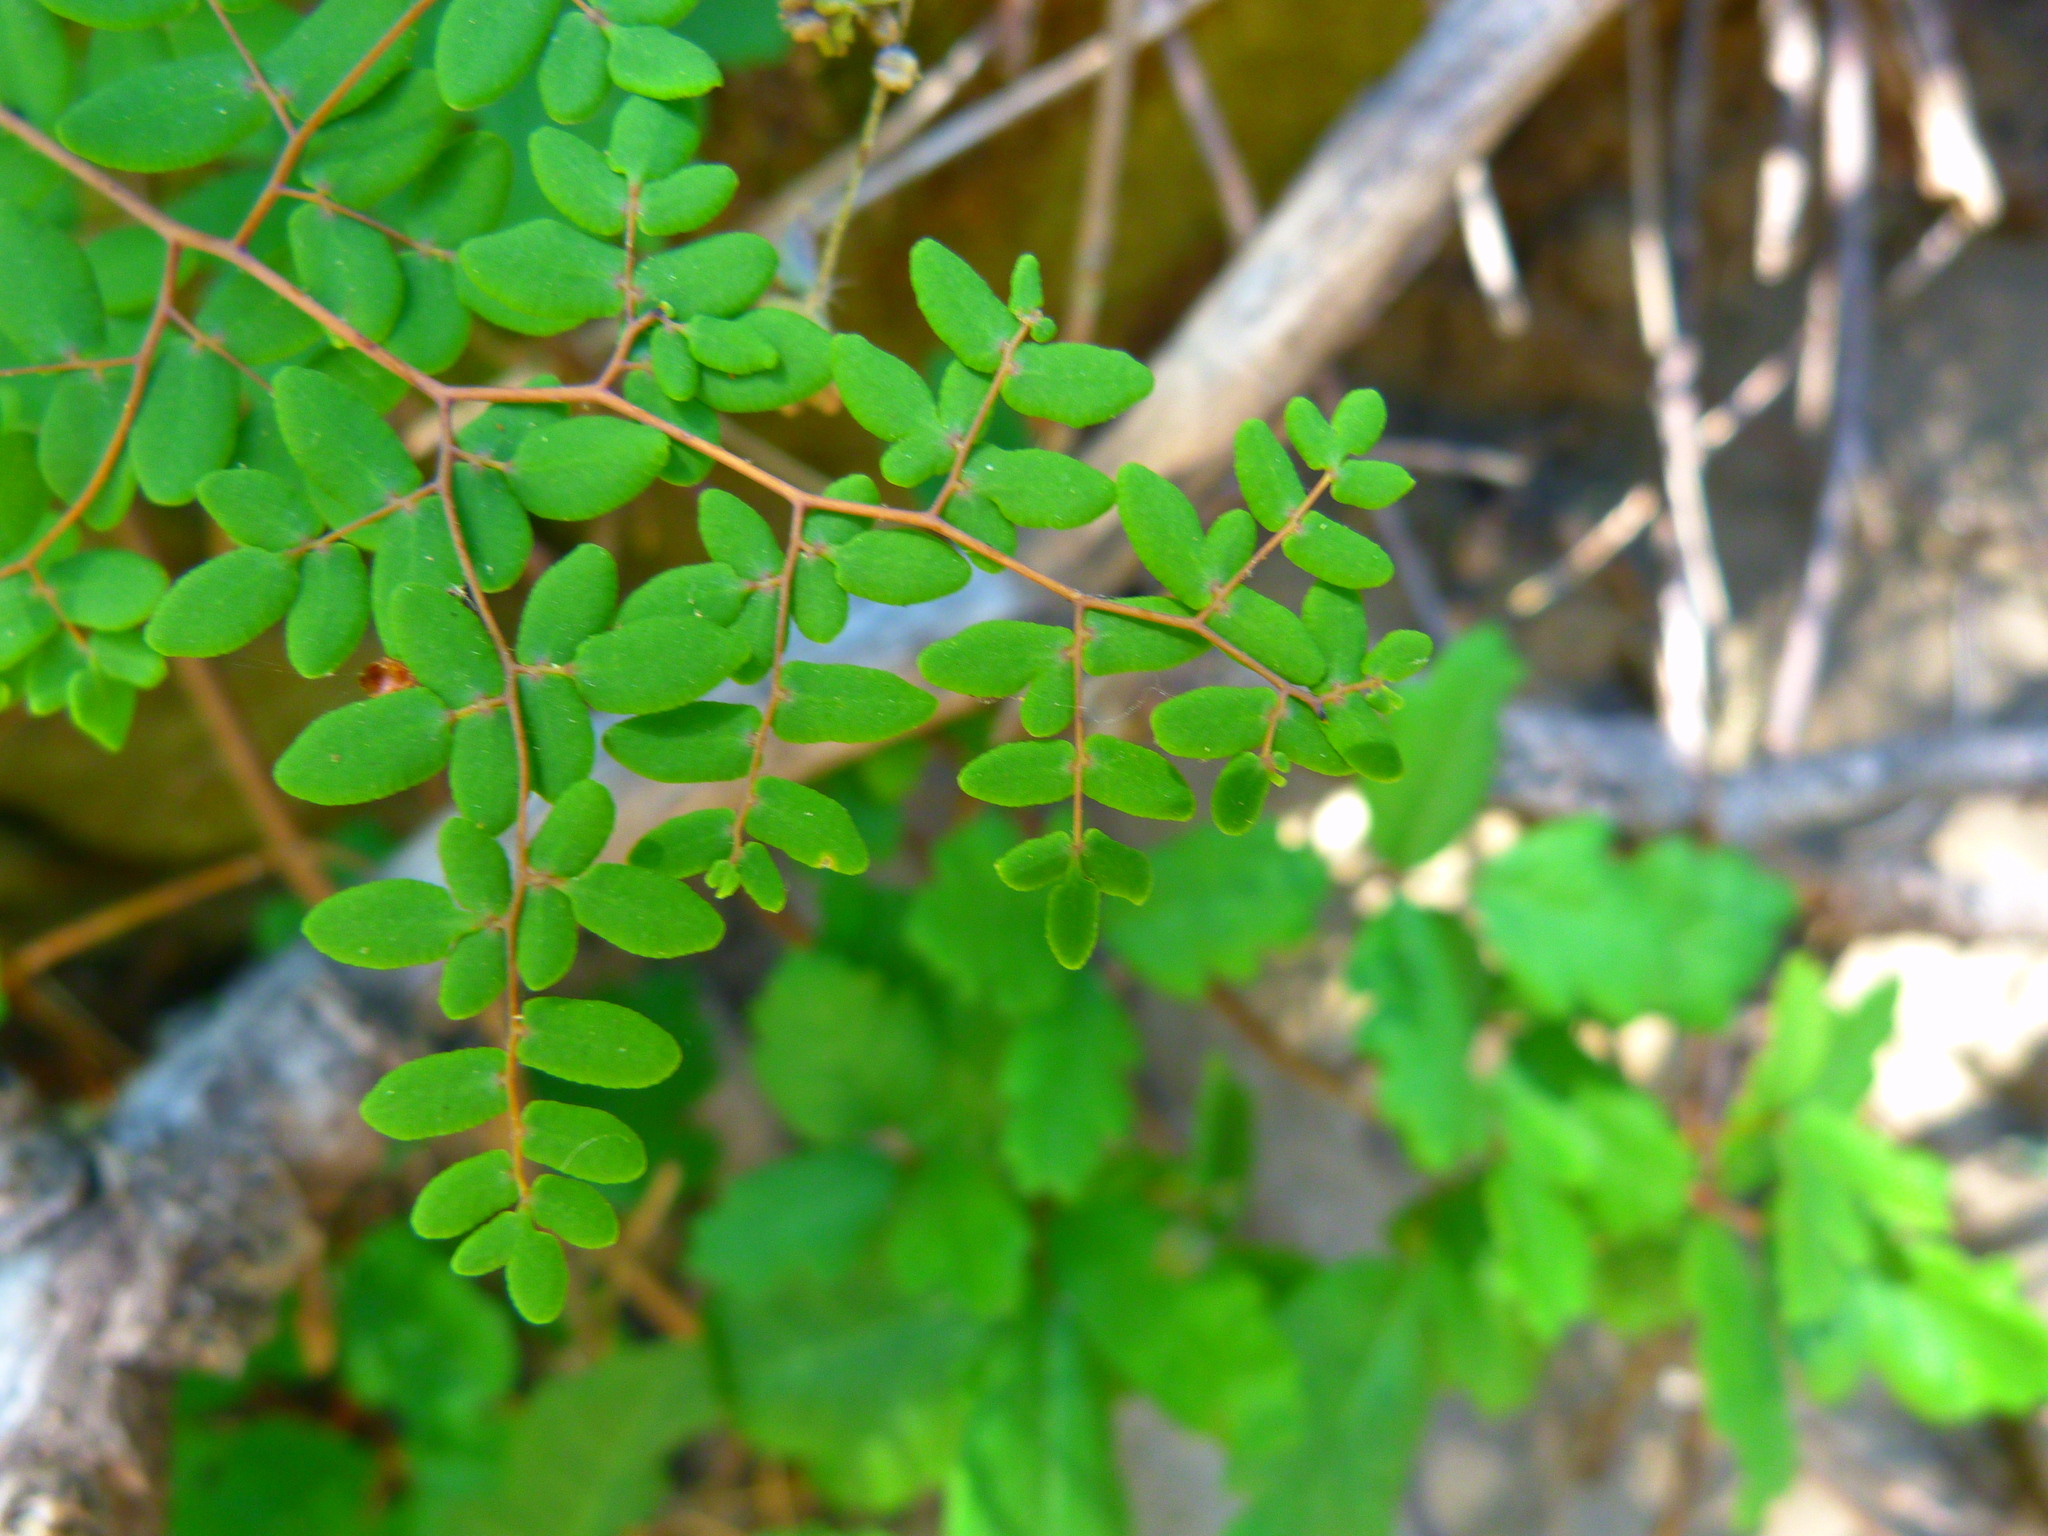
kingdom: Plantae
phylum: Tracheophyta
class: Polypodiopsida
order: Polypodiales
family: Pteridaceae
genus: Pellaea
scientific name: Pellaea andromedifolia
